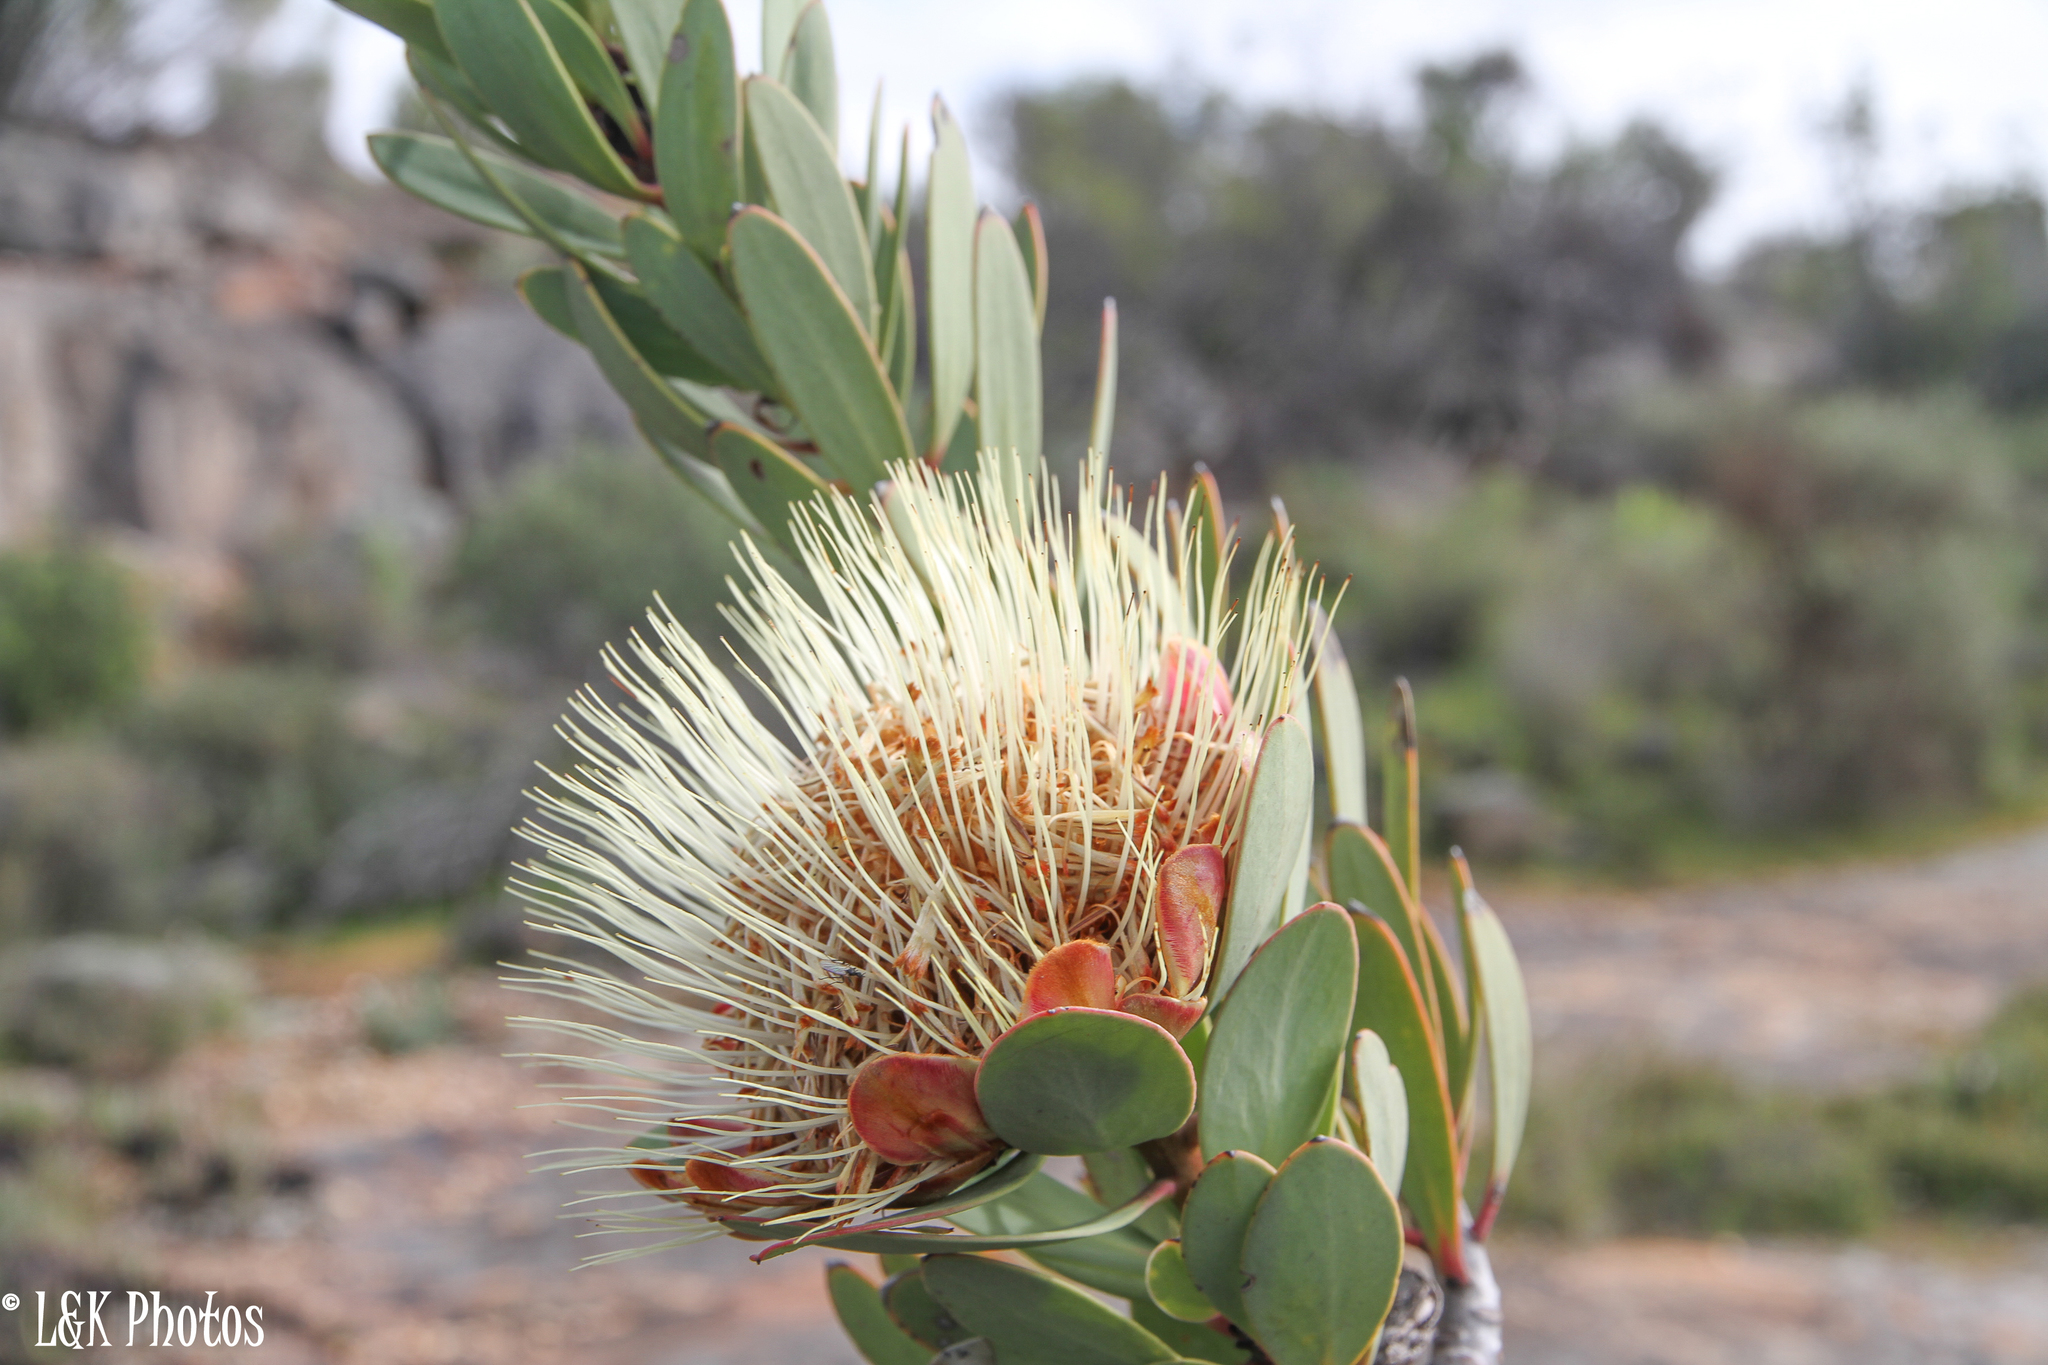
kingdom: Plantae
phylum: Tracheophyta
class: Magnoliopsida
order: Proteales
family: Proteaceae
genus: Protea
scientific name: Protea glabra
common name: Chestnut sugarbush
